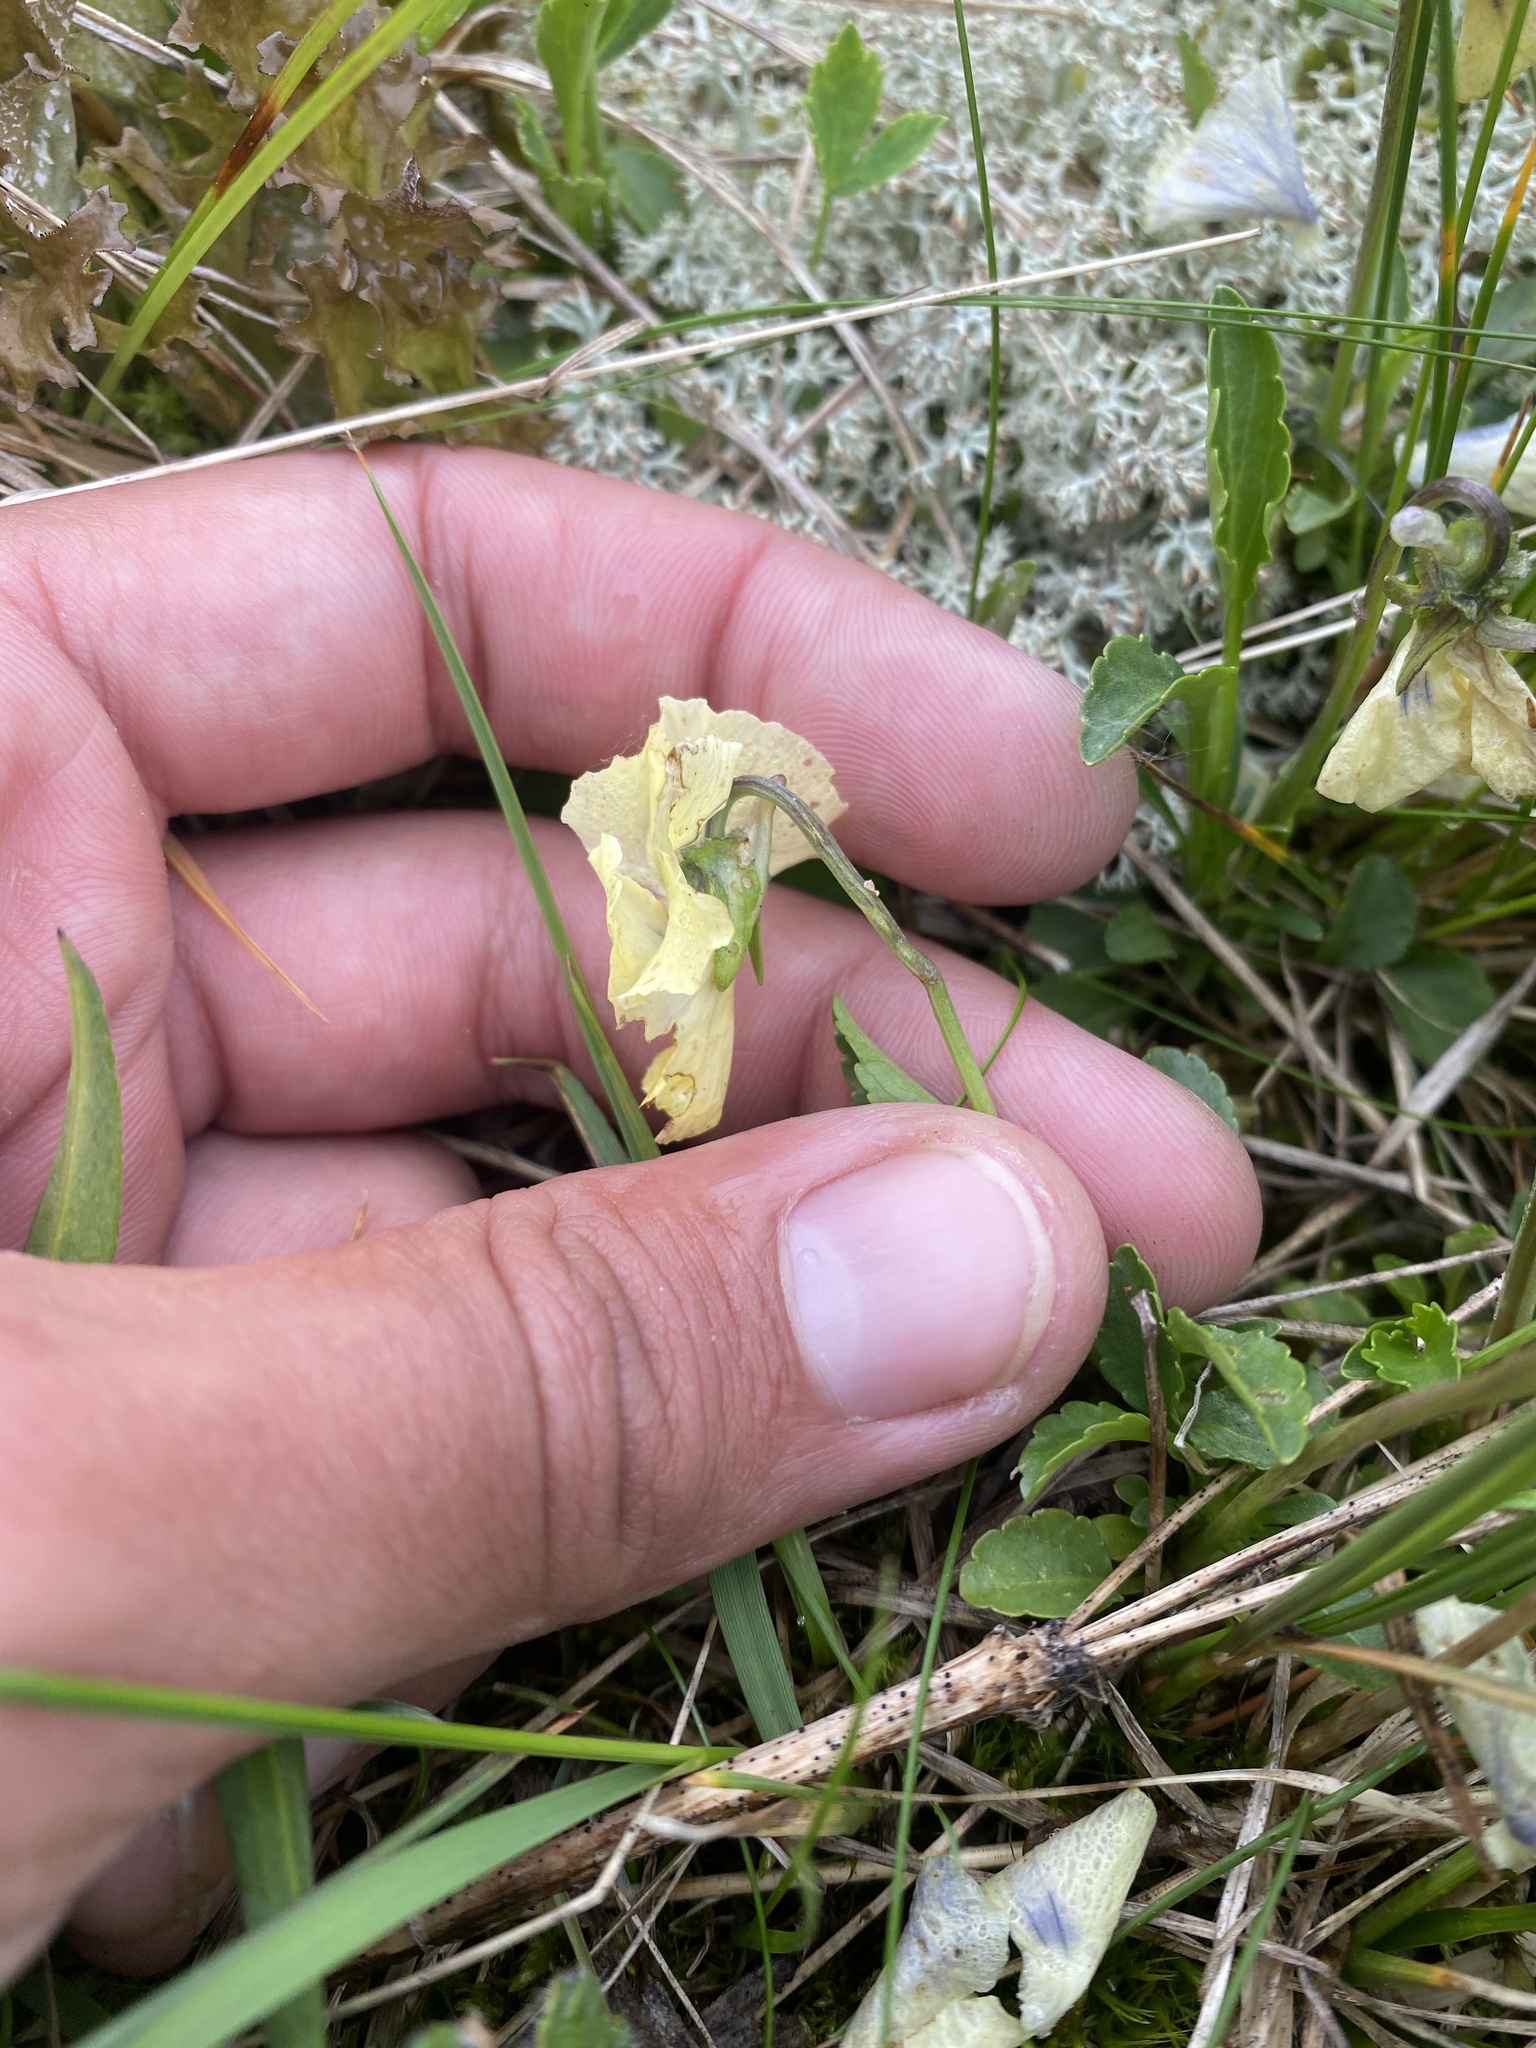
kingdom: Plantae
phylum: Tracheophyta
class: Magnoliopsida
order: Malpighiales
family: Violaceae
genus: Viola
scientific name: Viola oreades
